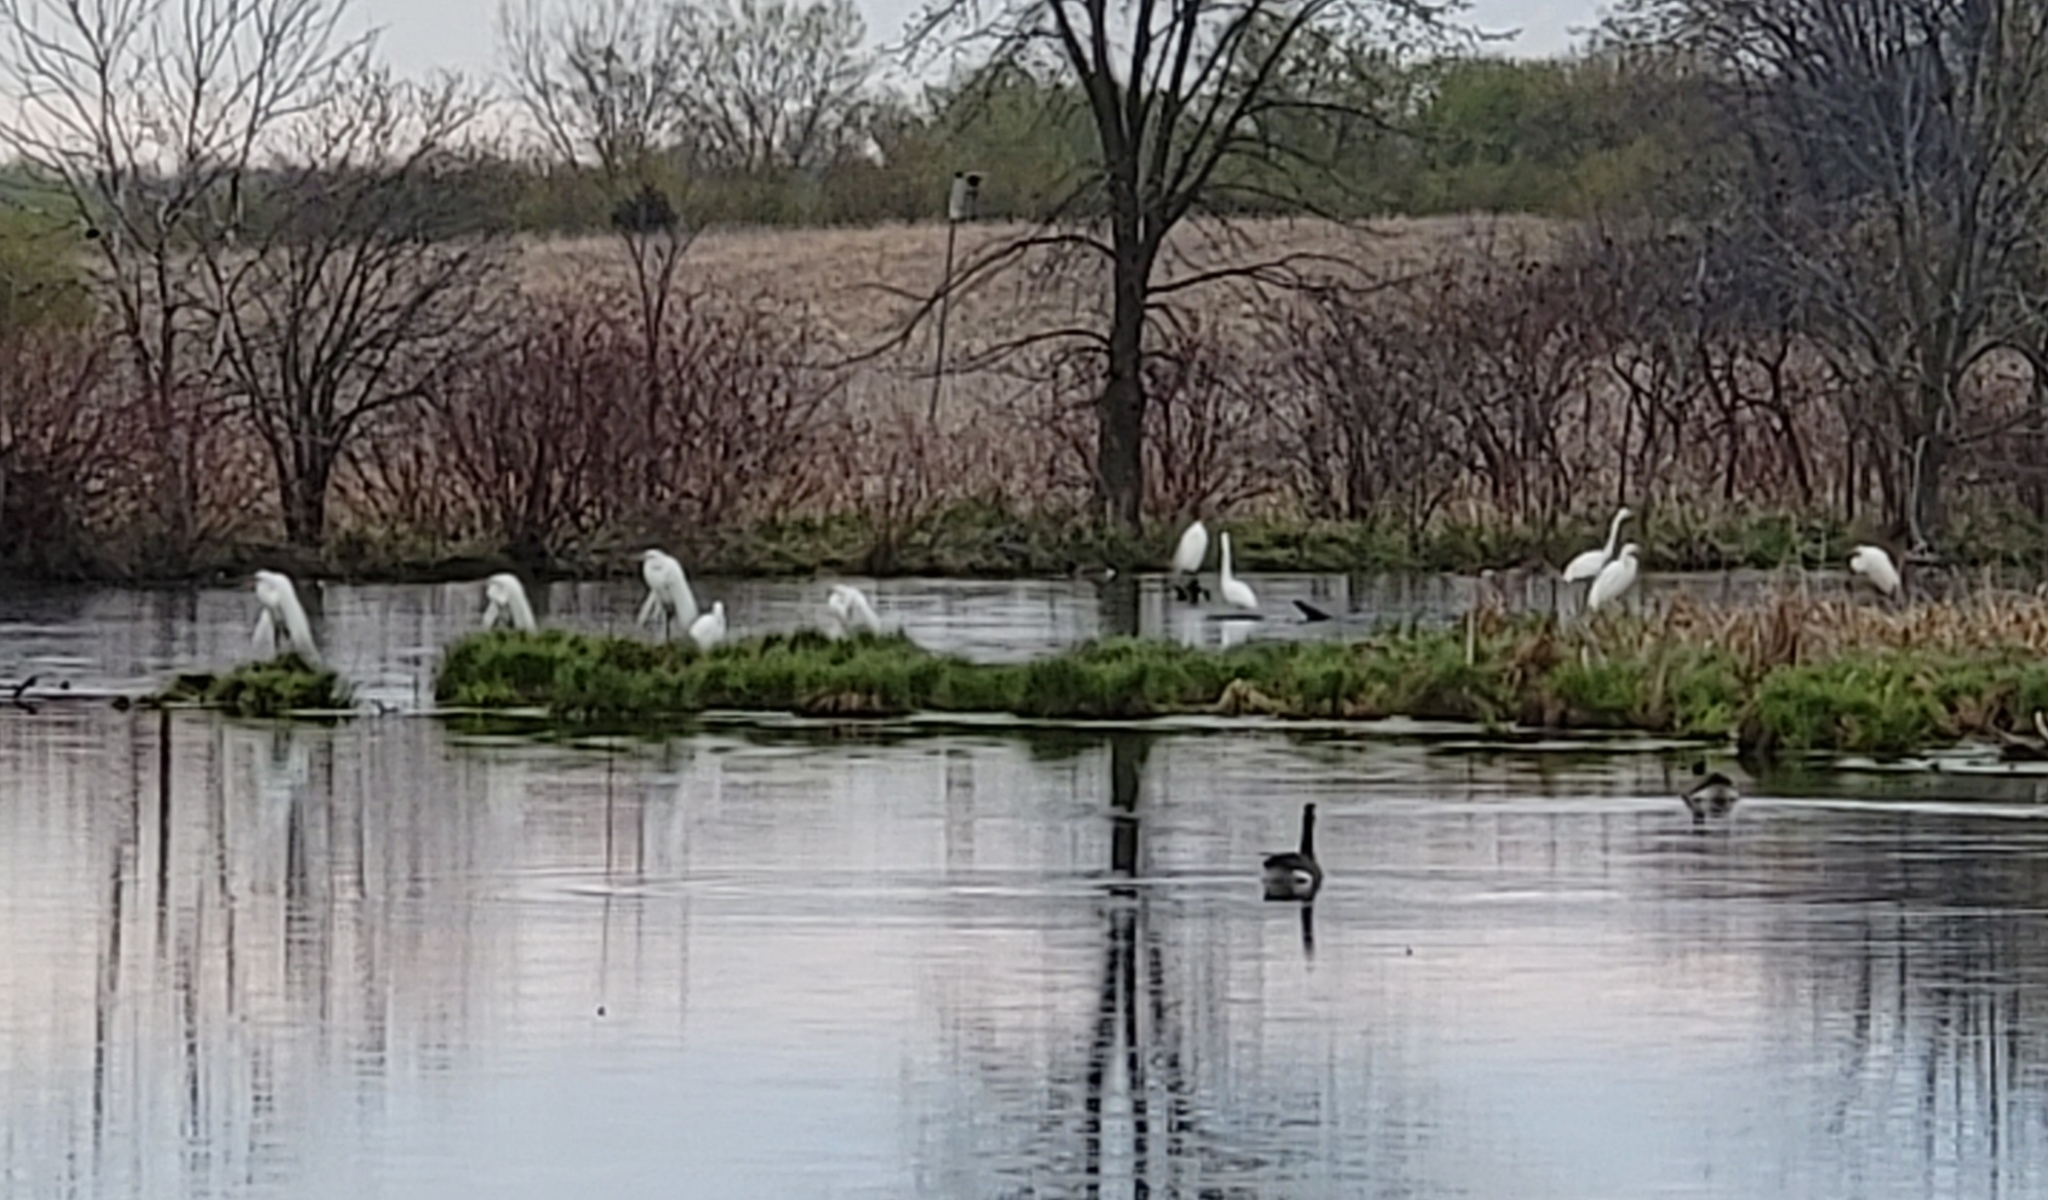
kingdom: Animalia
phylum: Chordata
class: Aves
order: Pelecaniformes
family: Ardeidae
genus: Ardea
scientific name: Ardea alba
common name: Great egret
